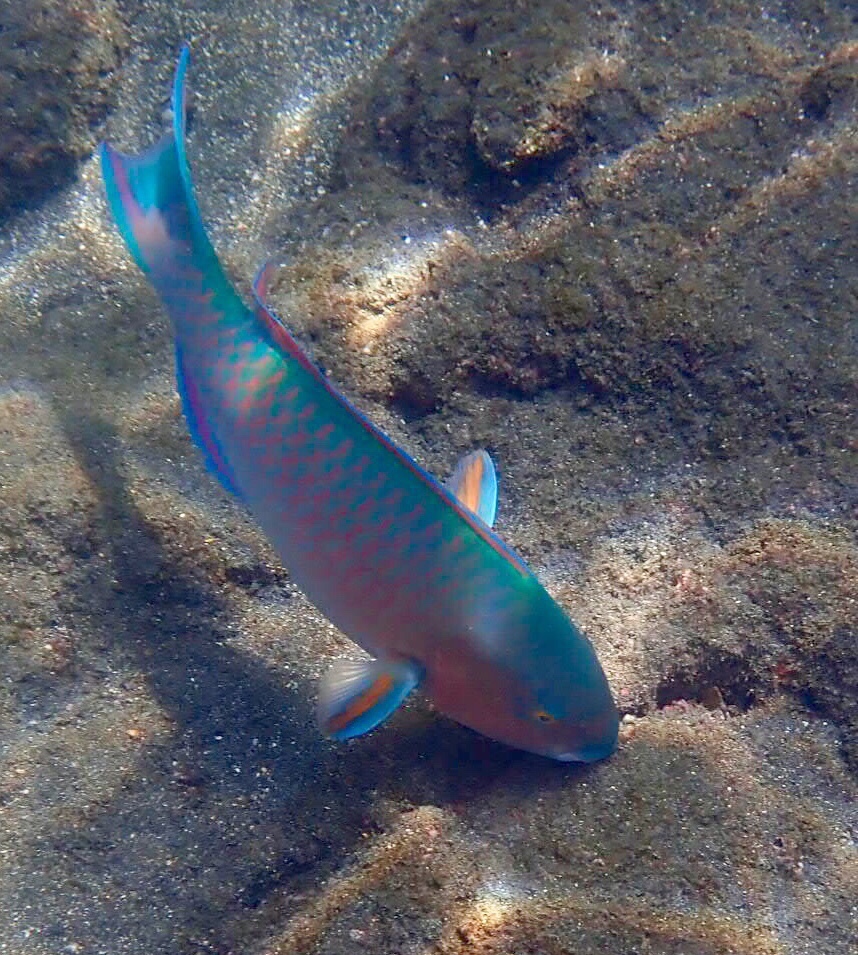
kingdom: Animalia
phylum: Chordata
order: Perciformes
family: Scaridae
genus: Scarus
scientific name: Scarus ghobban
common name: Blue-barred parrotfish
